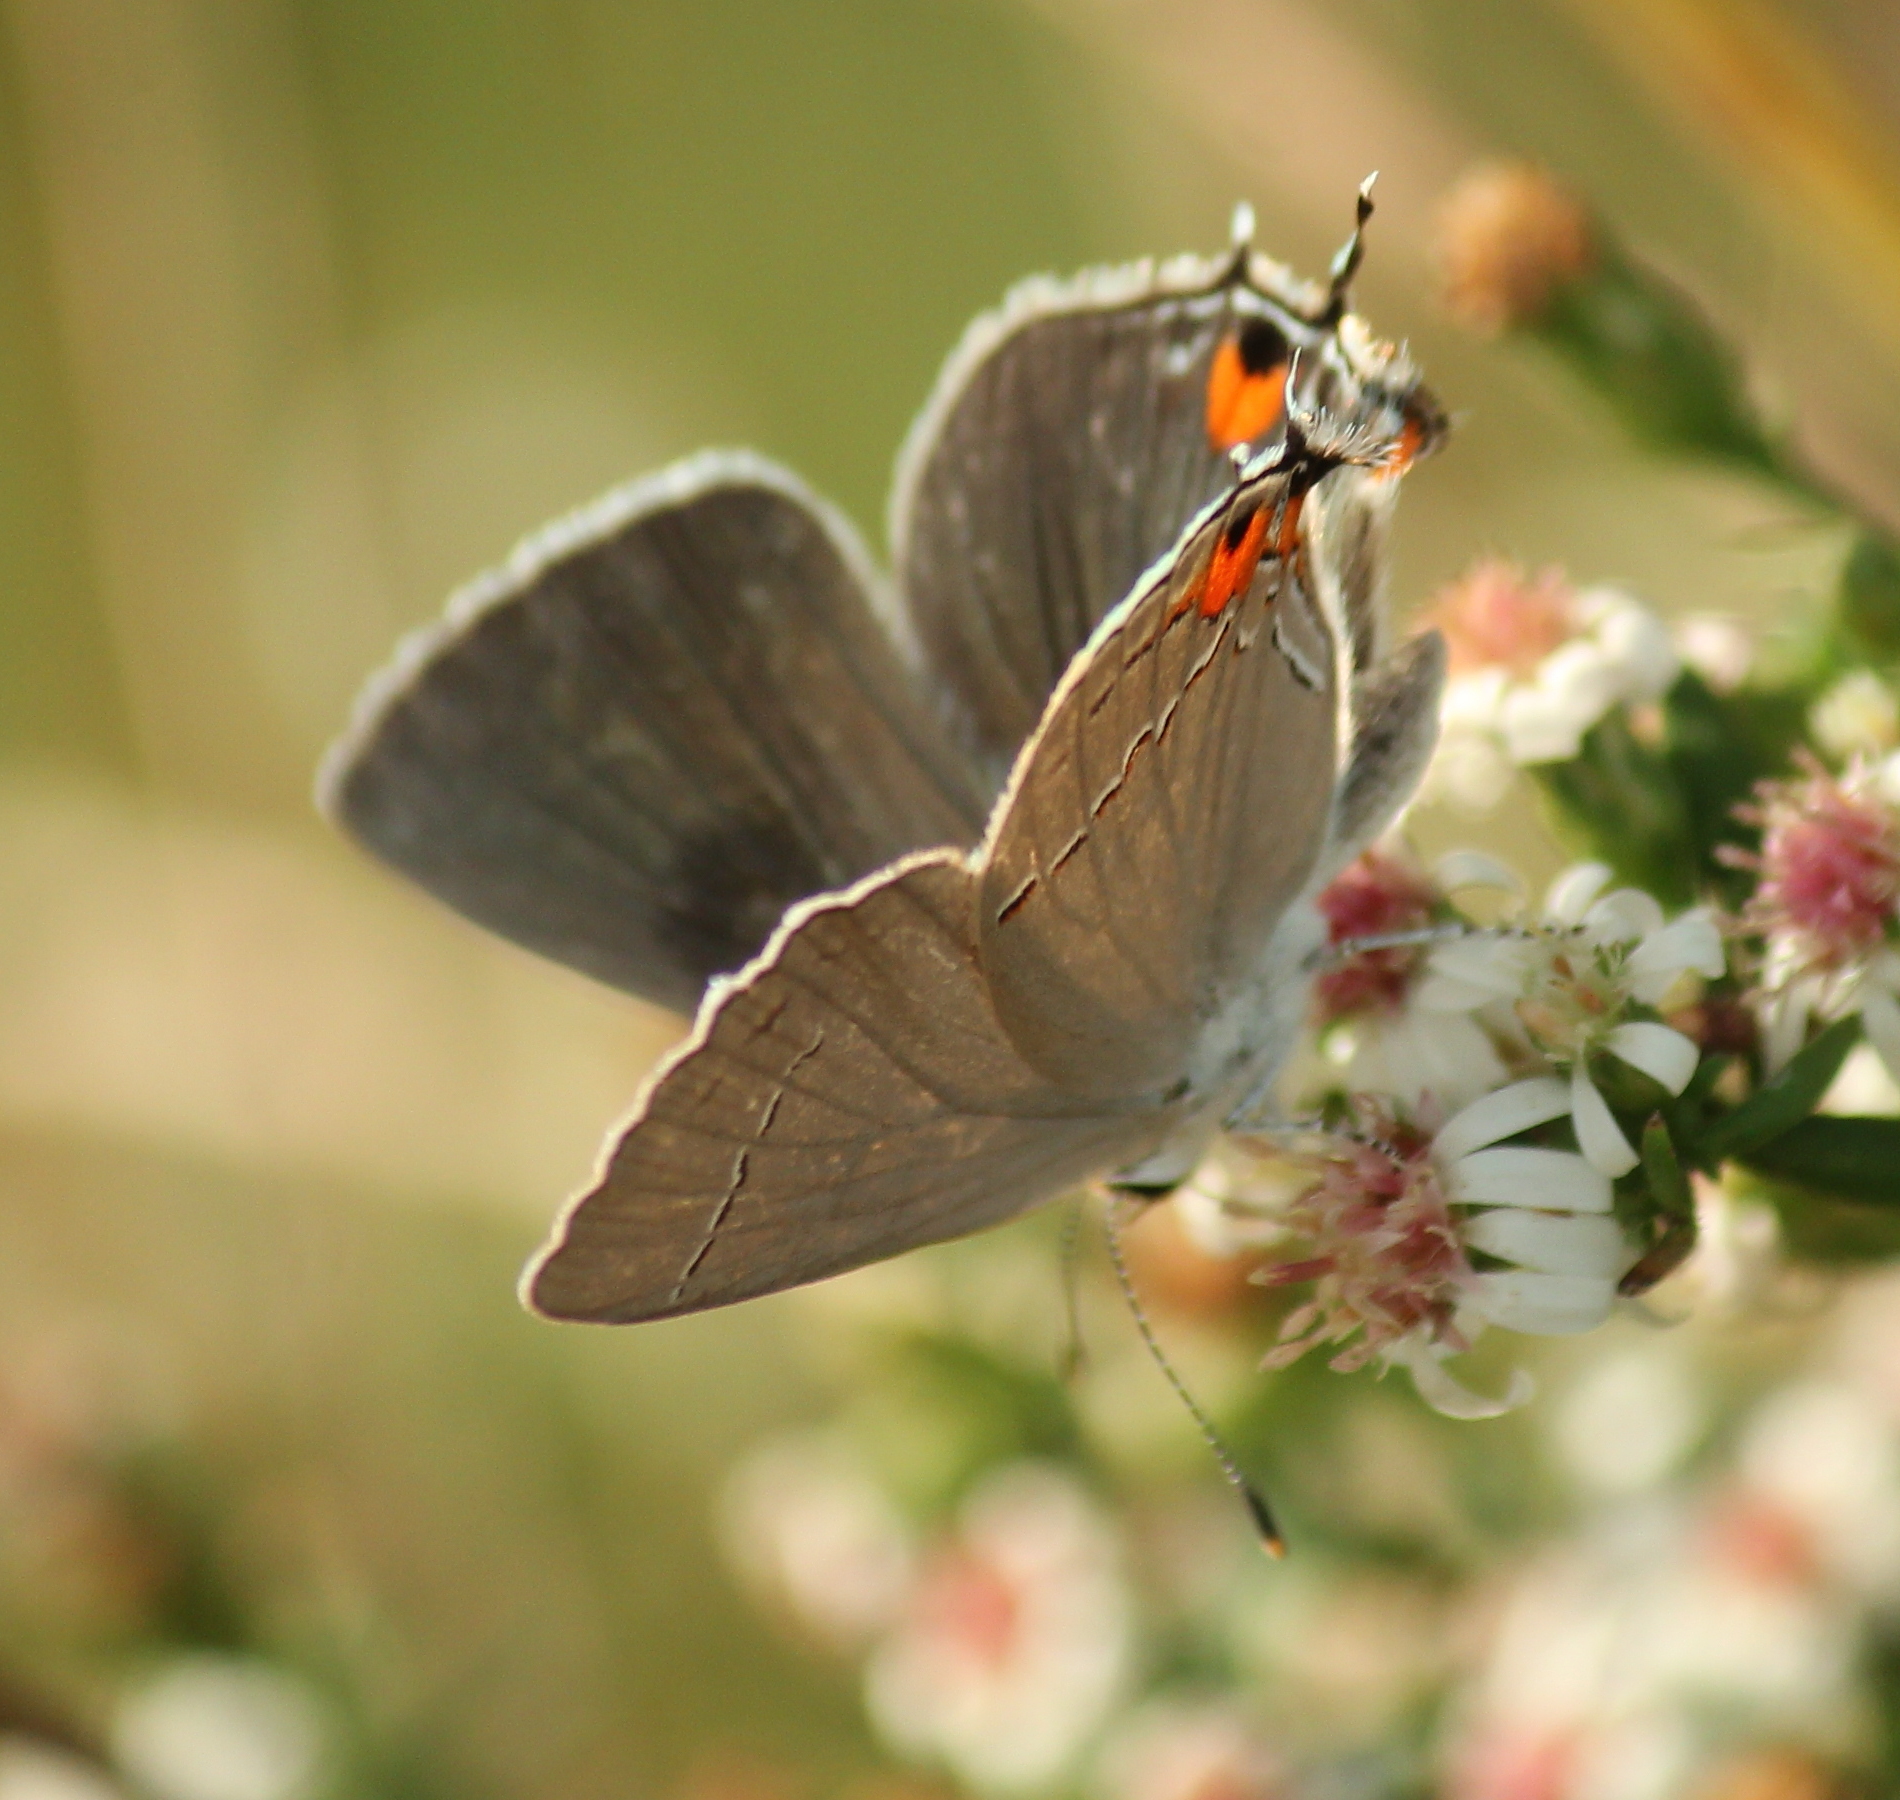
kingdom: Animalia
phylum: Arthropoda
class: Insecta
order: Lepidoptera
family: Lycaenidae
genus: Strymon
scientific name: Strymon melinus
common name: Gray hairstreak
